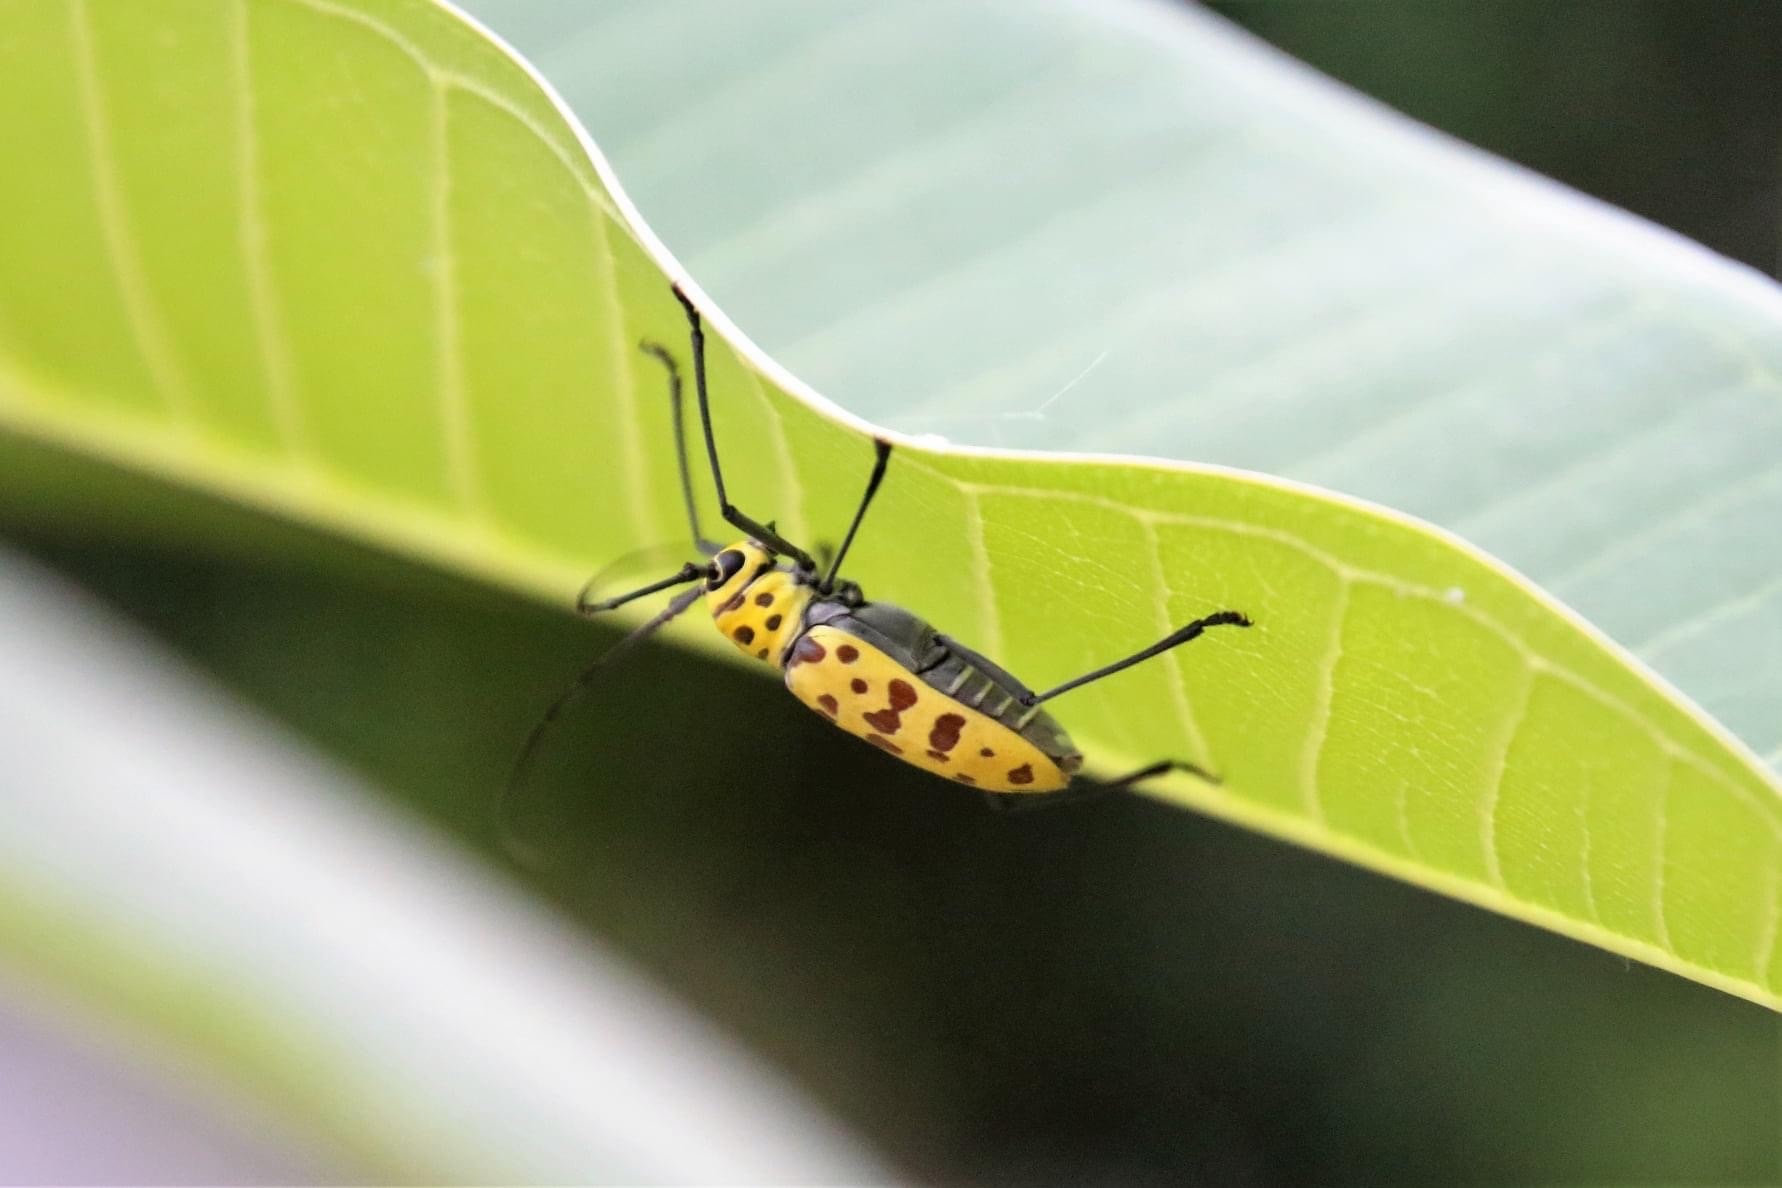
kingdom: Animalia
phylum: Arthropoda
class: Insecta
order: Coleoptera
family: Cerambycidae
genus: Gerania
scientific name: Gerania boscii
